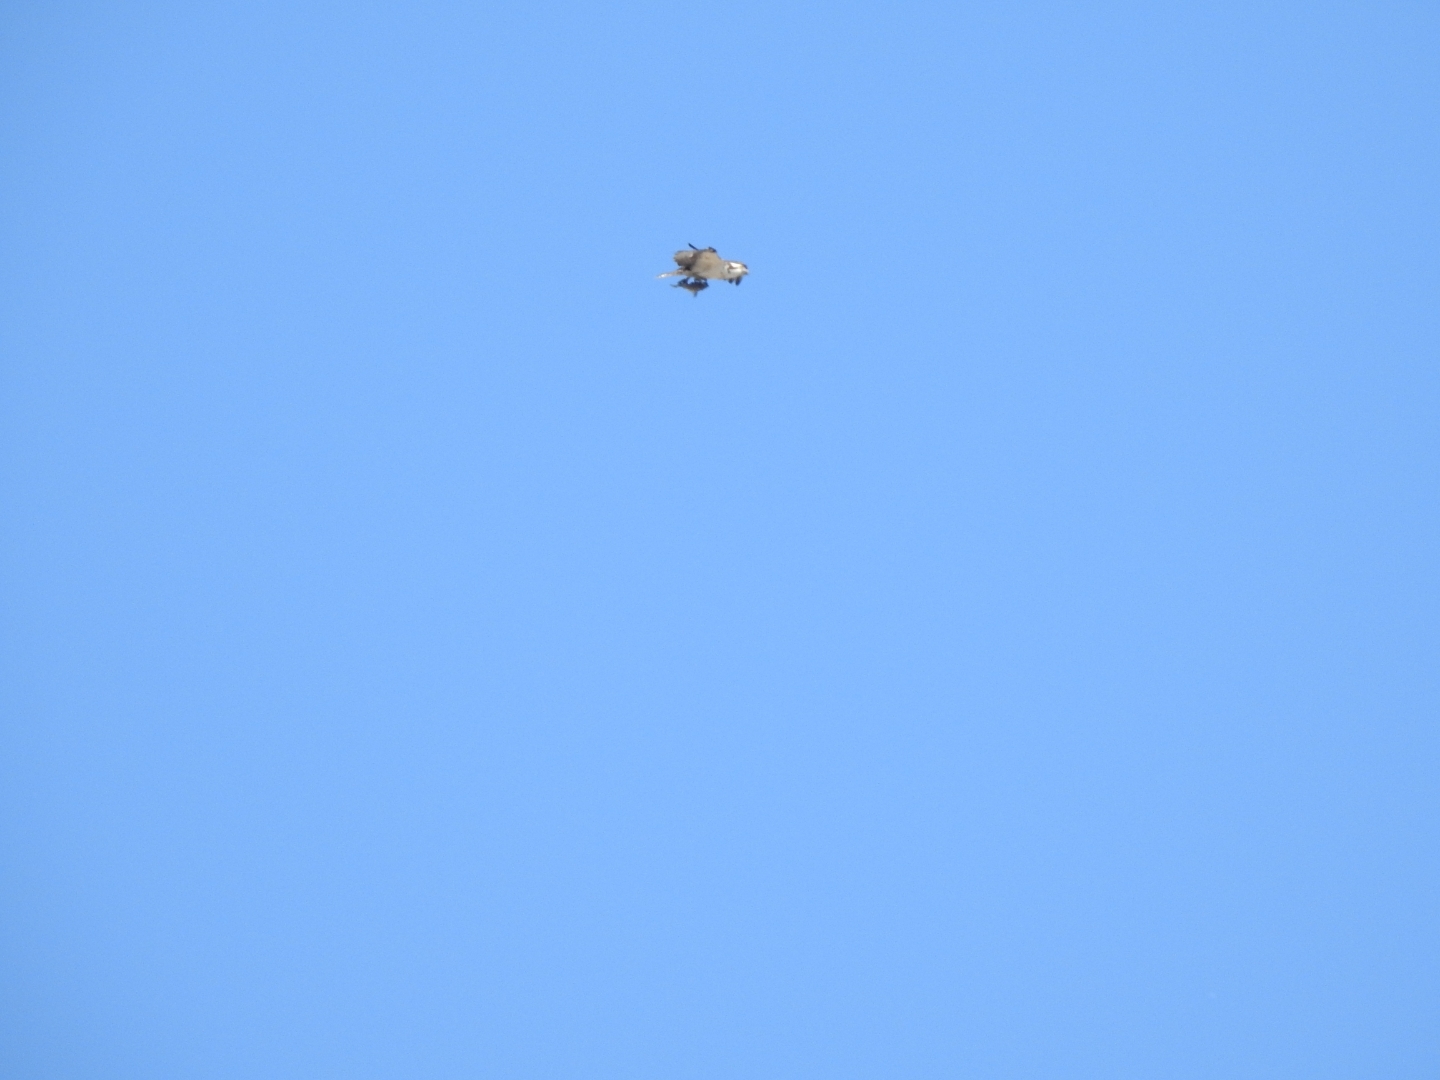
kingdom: Animalia
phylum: Chordata
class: Aves
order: Accipitriformes
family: Pandionidae
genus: Pandion
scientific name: Pandion haliaetus
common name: Osprey
